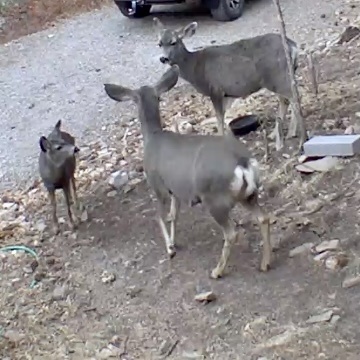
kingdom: Animalia
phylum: Chordata
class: Mammalia
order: Artiodactyla
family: Cervidae
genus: Odocoileus
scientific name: Odocoileus hemionus
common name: Mule deer
